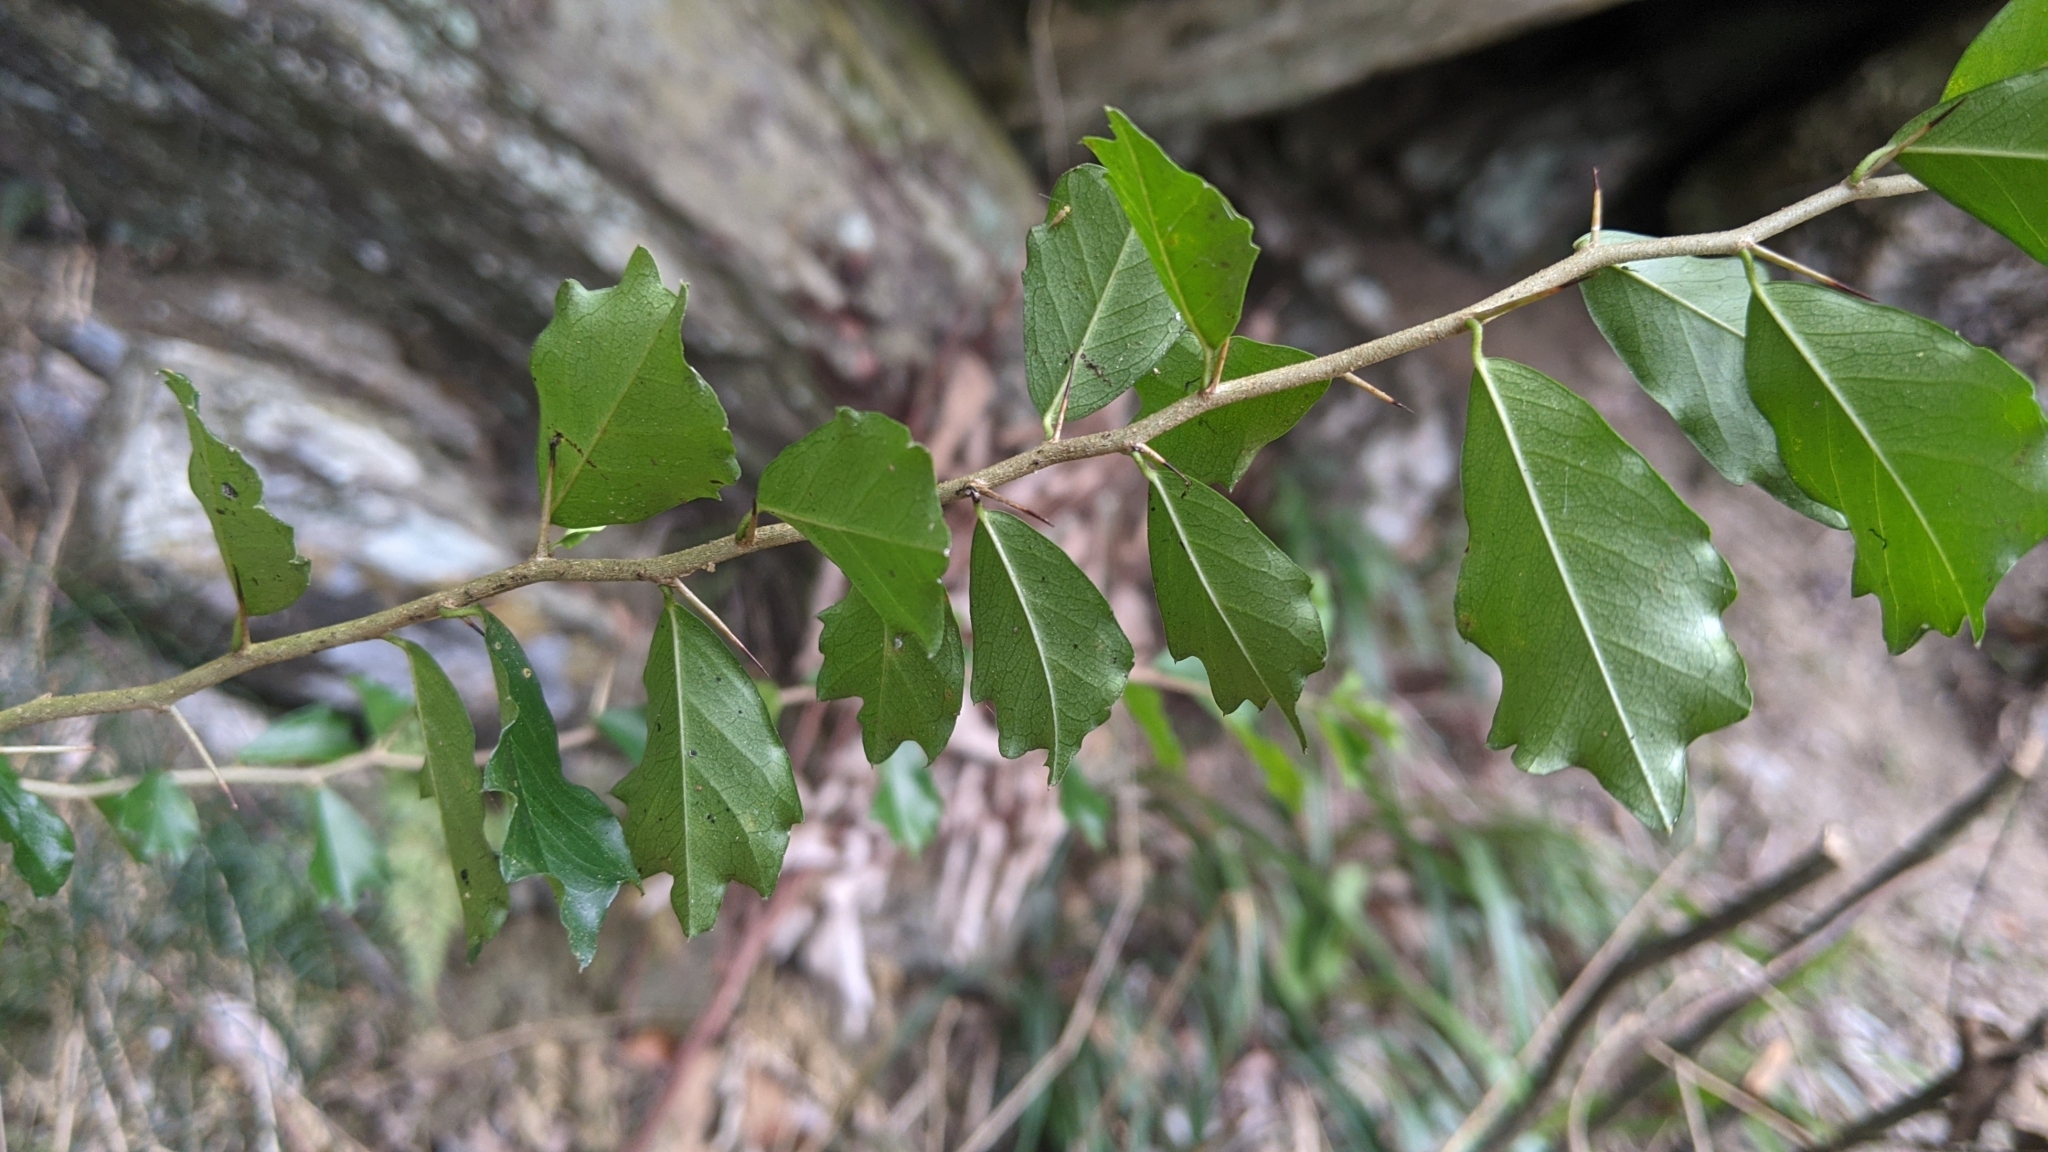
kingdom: Plantae
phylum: Tracheophyta
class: Magnoliopsida
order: Rosales
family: Moraceae
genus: Maclura
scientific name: Maclura cochinchinensis
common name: Cockspurthorn
